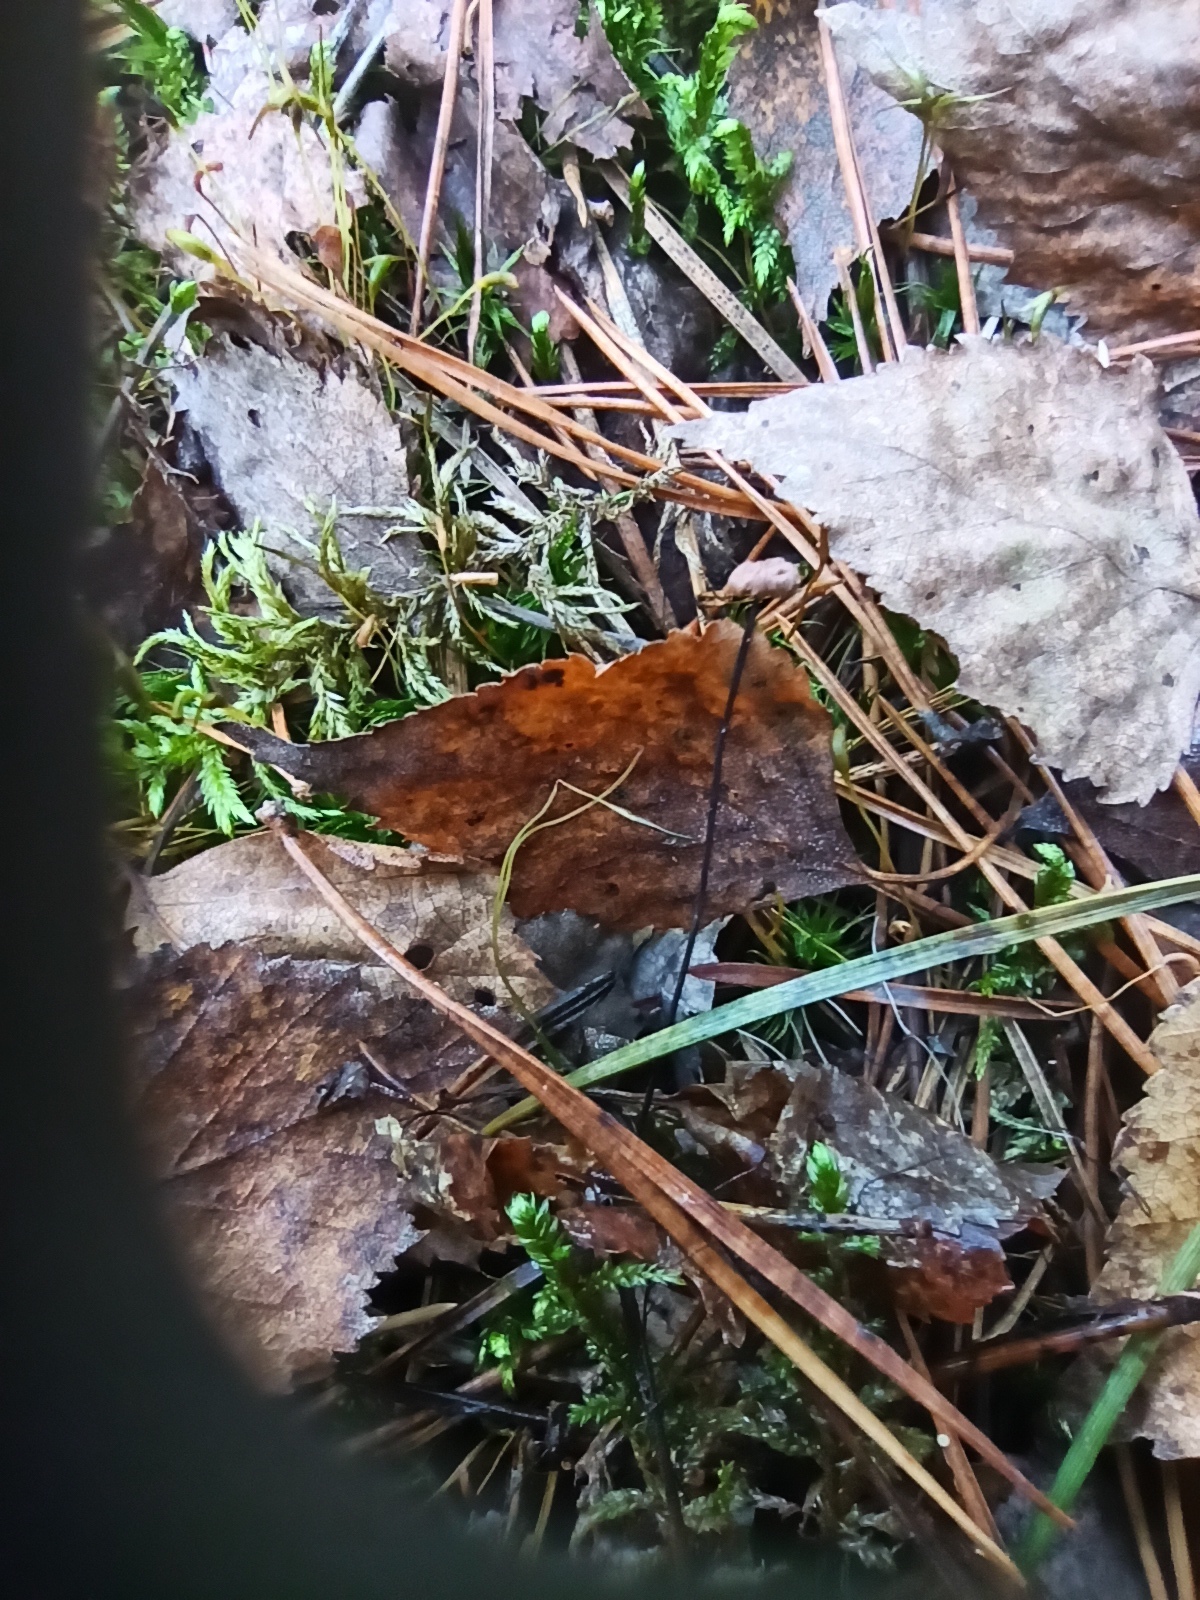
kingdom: Fungi
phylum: Basidiomycota
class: Agaricomycetes
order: Agaricales
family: Omphalotaceae
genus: Gymnopus
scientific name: Gymnopus androsaceus
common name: Horse-hair fungus
